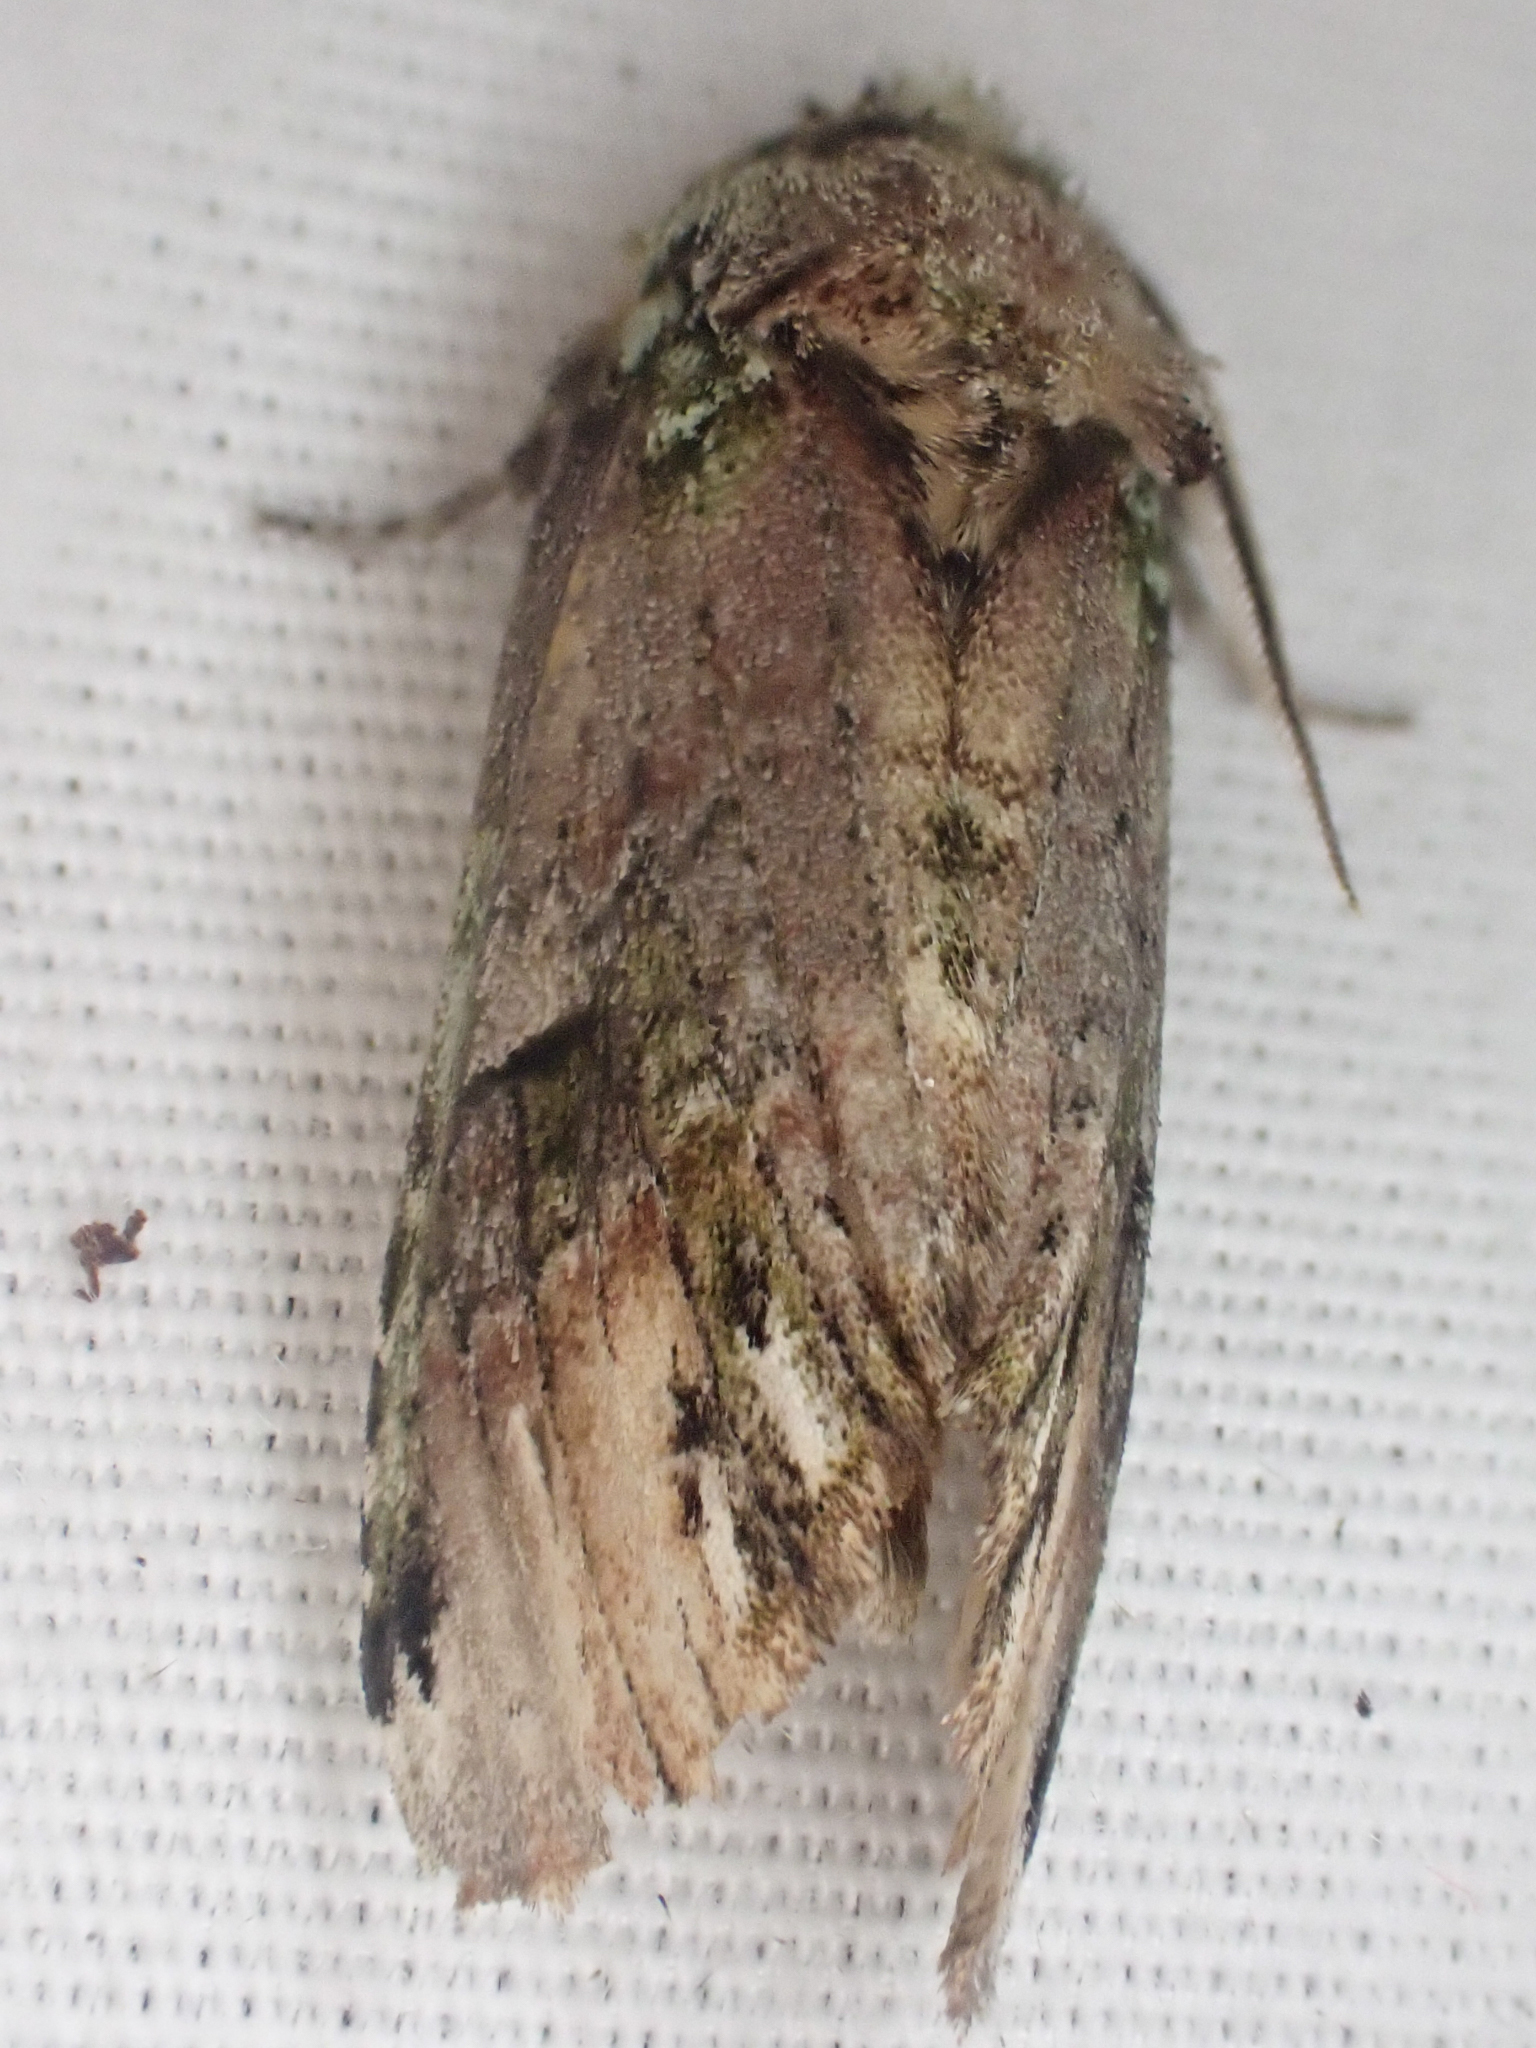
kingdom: Animalia
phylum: Arthropoda
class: Insecta
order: Lepidoptera
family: Notodontidae
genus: Schizura
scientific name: Schizura
